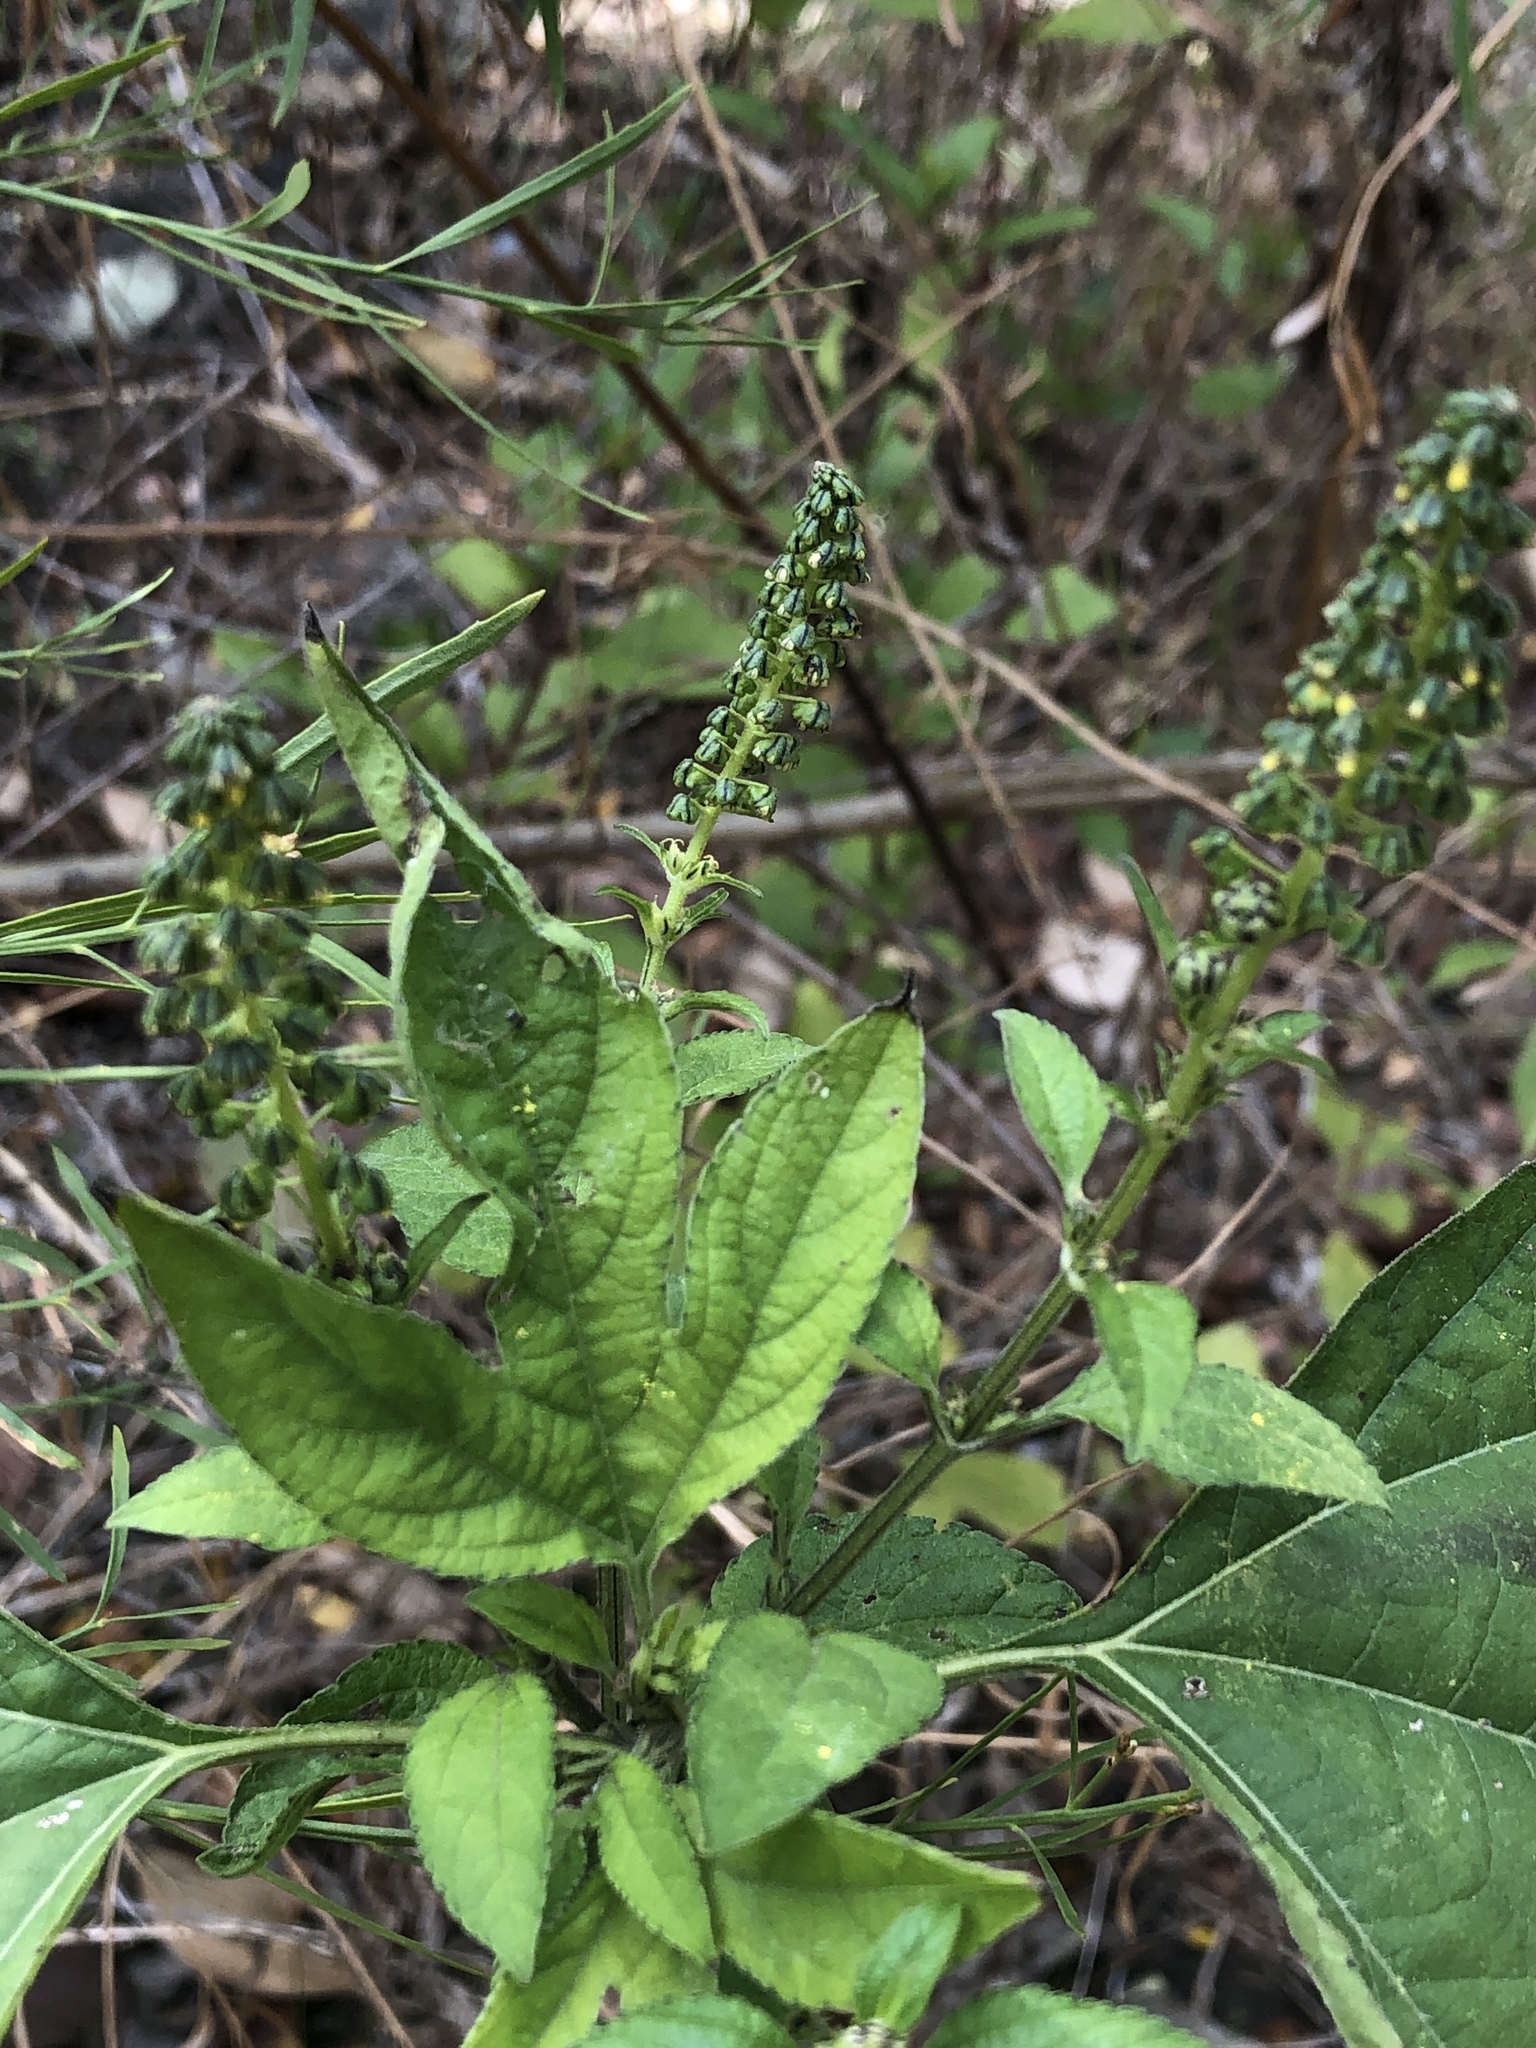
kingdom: Plantae
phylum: Tracheophyta
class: Magnoliopsida
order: Asterales
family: Asteraceae
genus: Ambrosia
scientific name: Ambrosia trifida
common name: Giant ragweed
